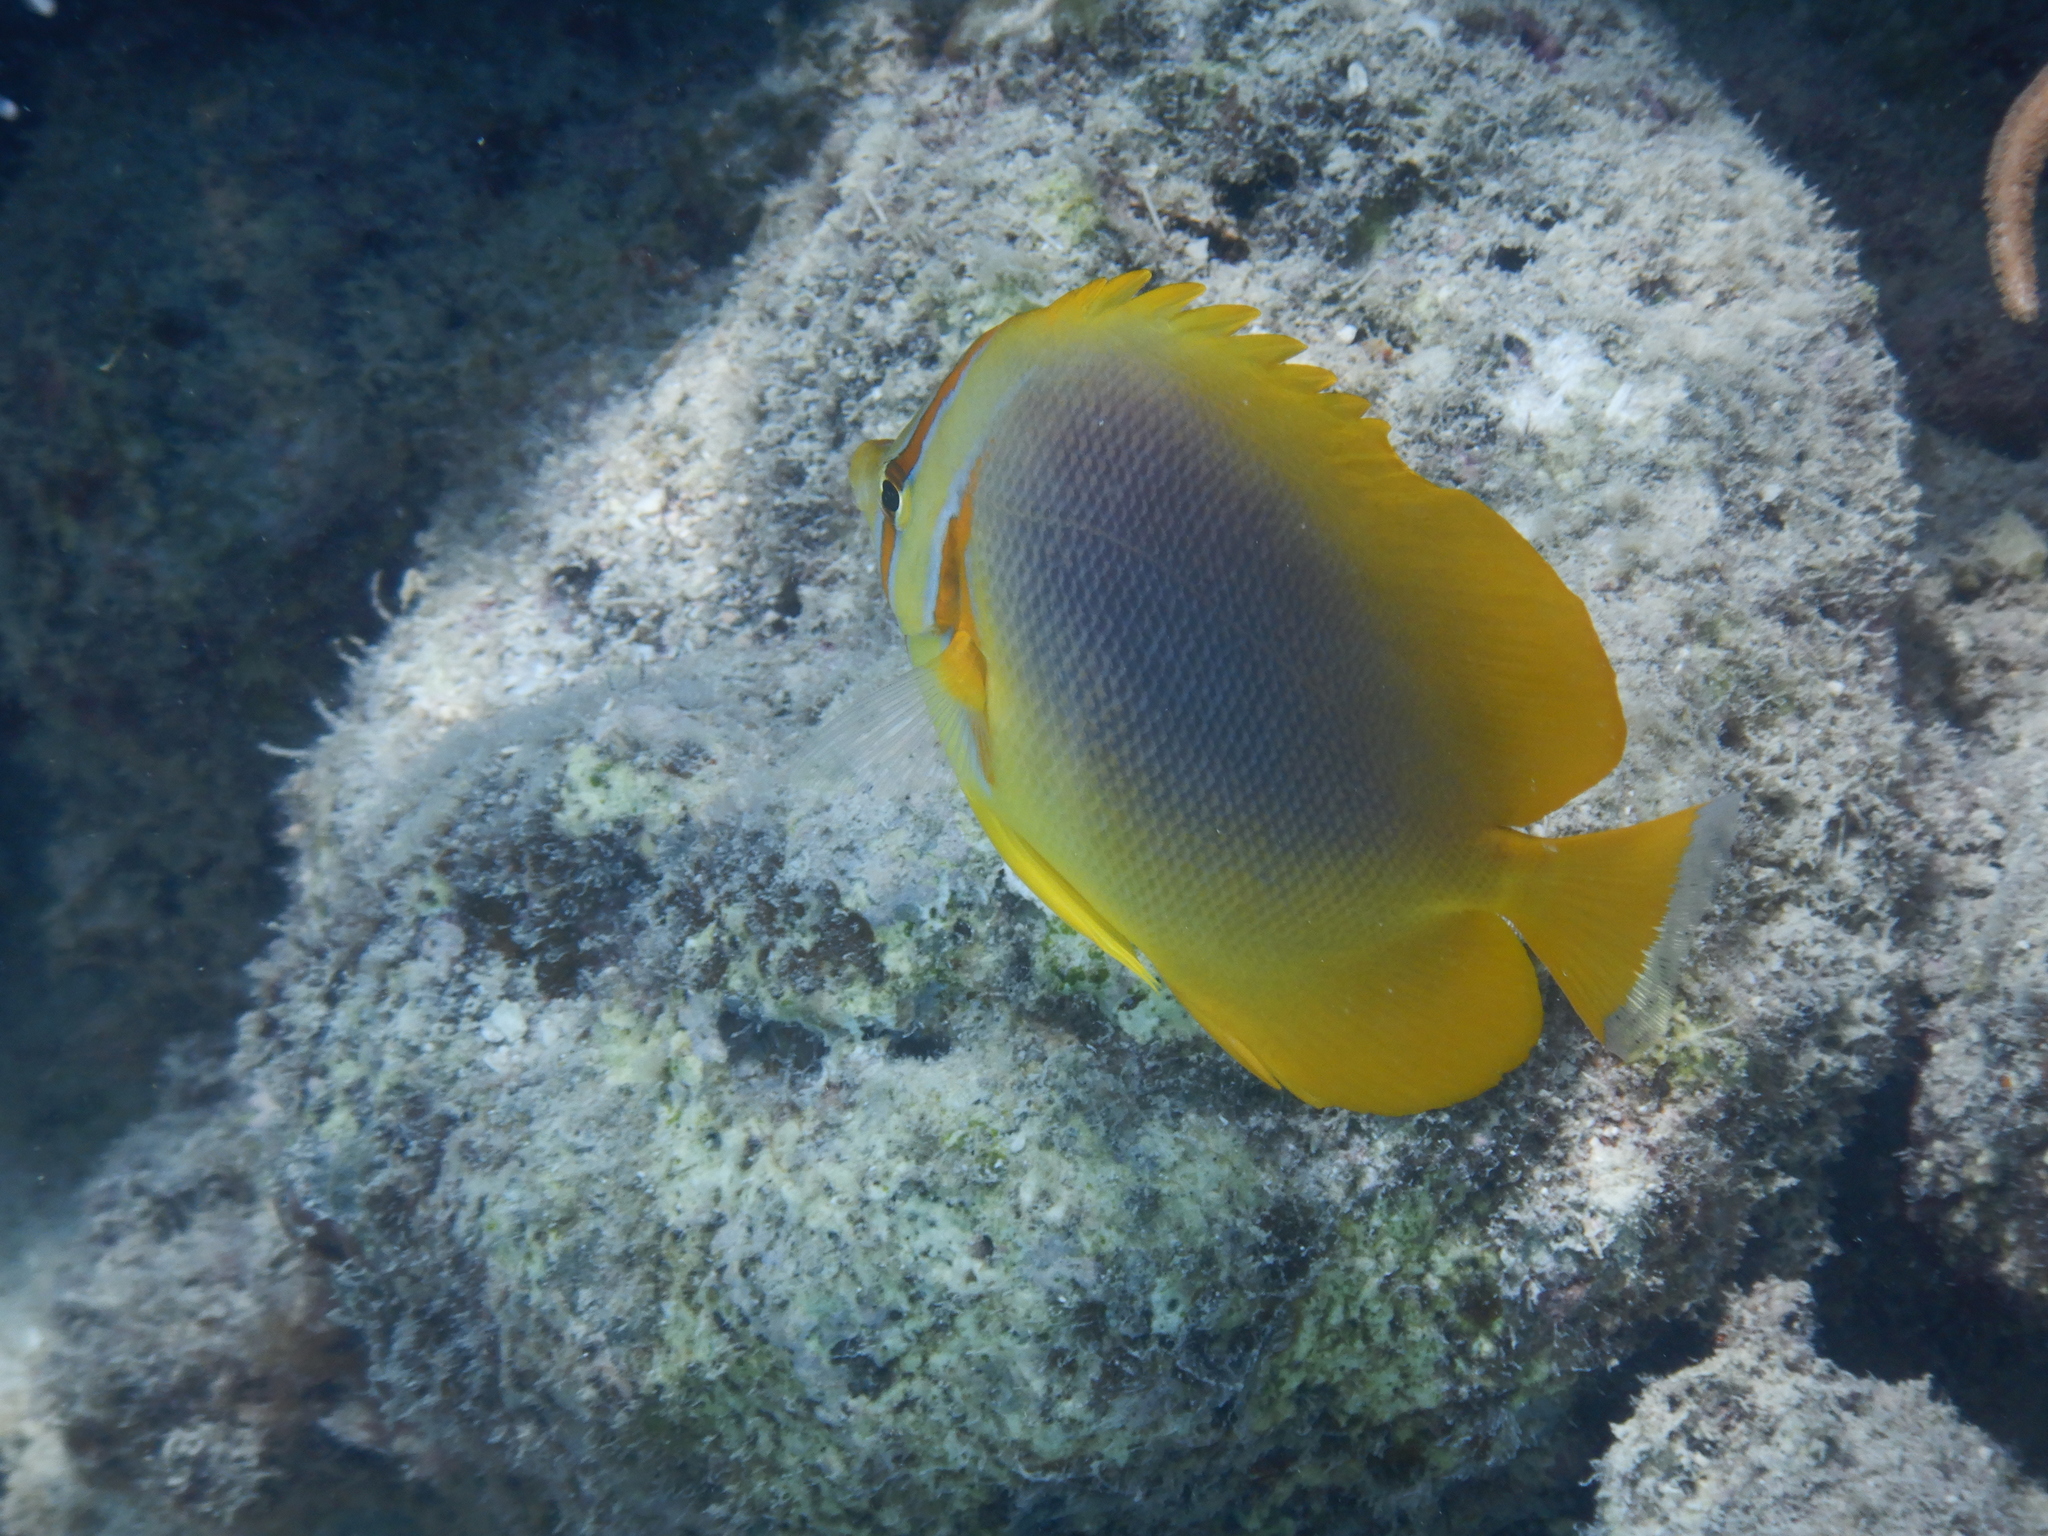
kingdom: Animalia
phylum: Chordata
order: Perciformes
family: Chaetodontidae
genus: Chaetodon
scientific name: Chaetodon aureofasciatus
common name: Golden butterflyfish
